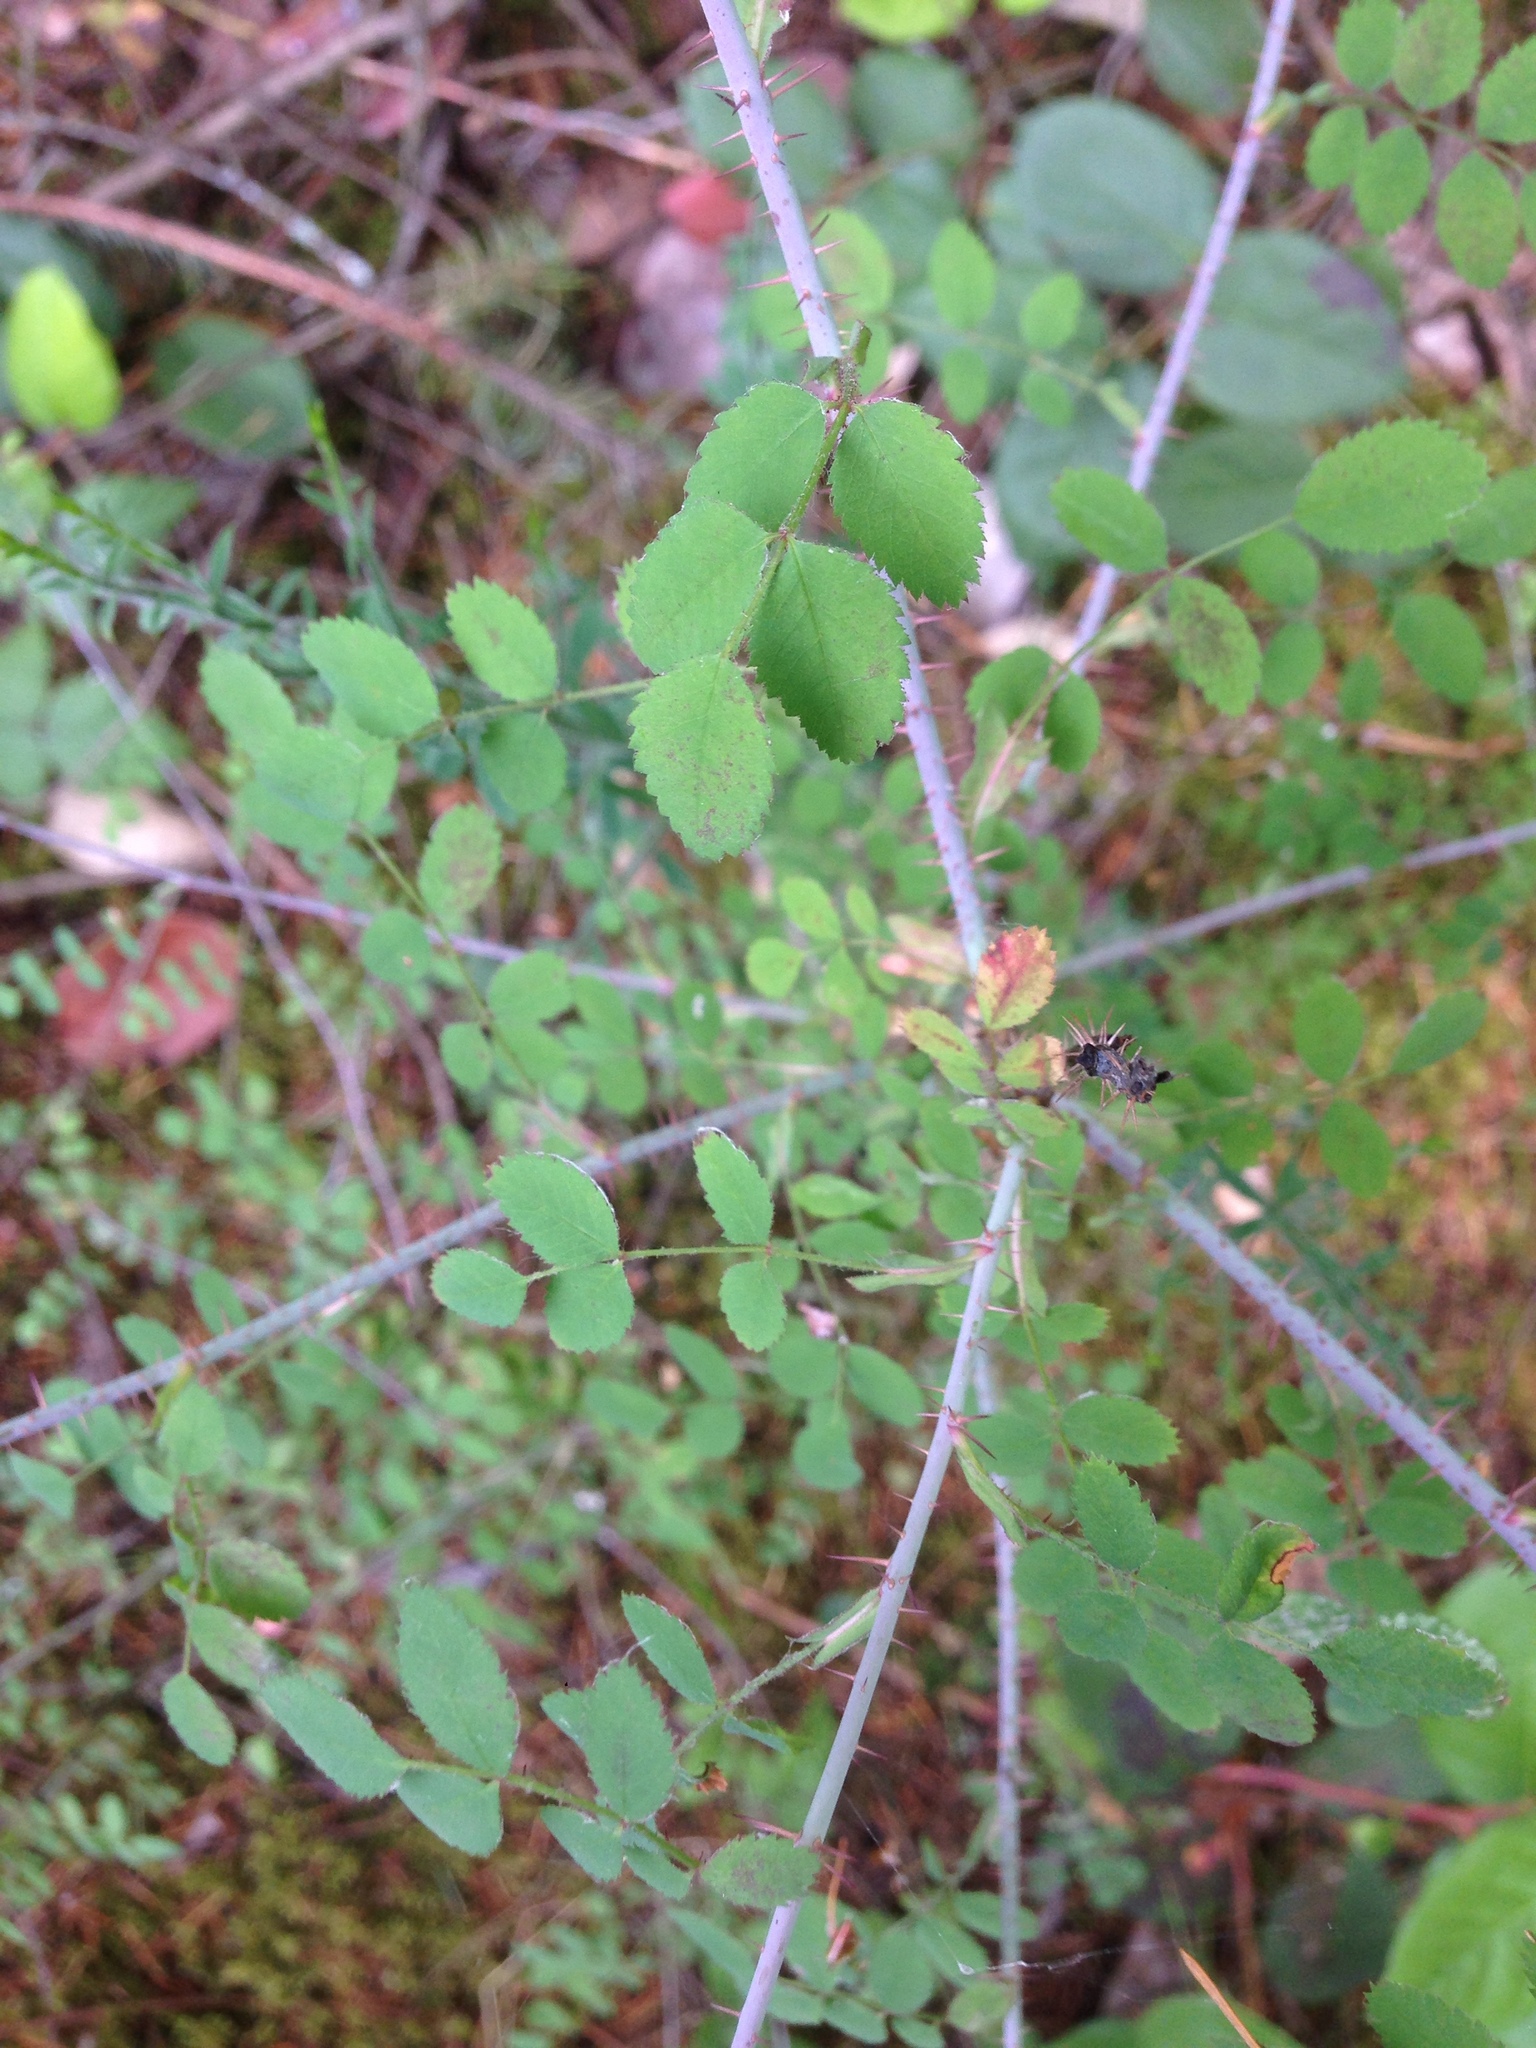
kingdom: Plantae
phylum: Tracheophyta
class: Magnoliopsida
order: Rosales
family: Rosaceae
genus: Rosa
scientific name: Rosa gymnocarpa
